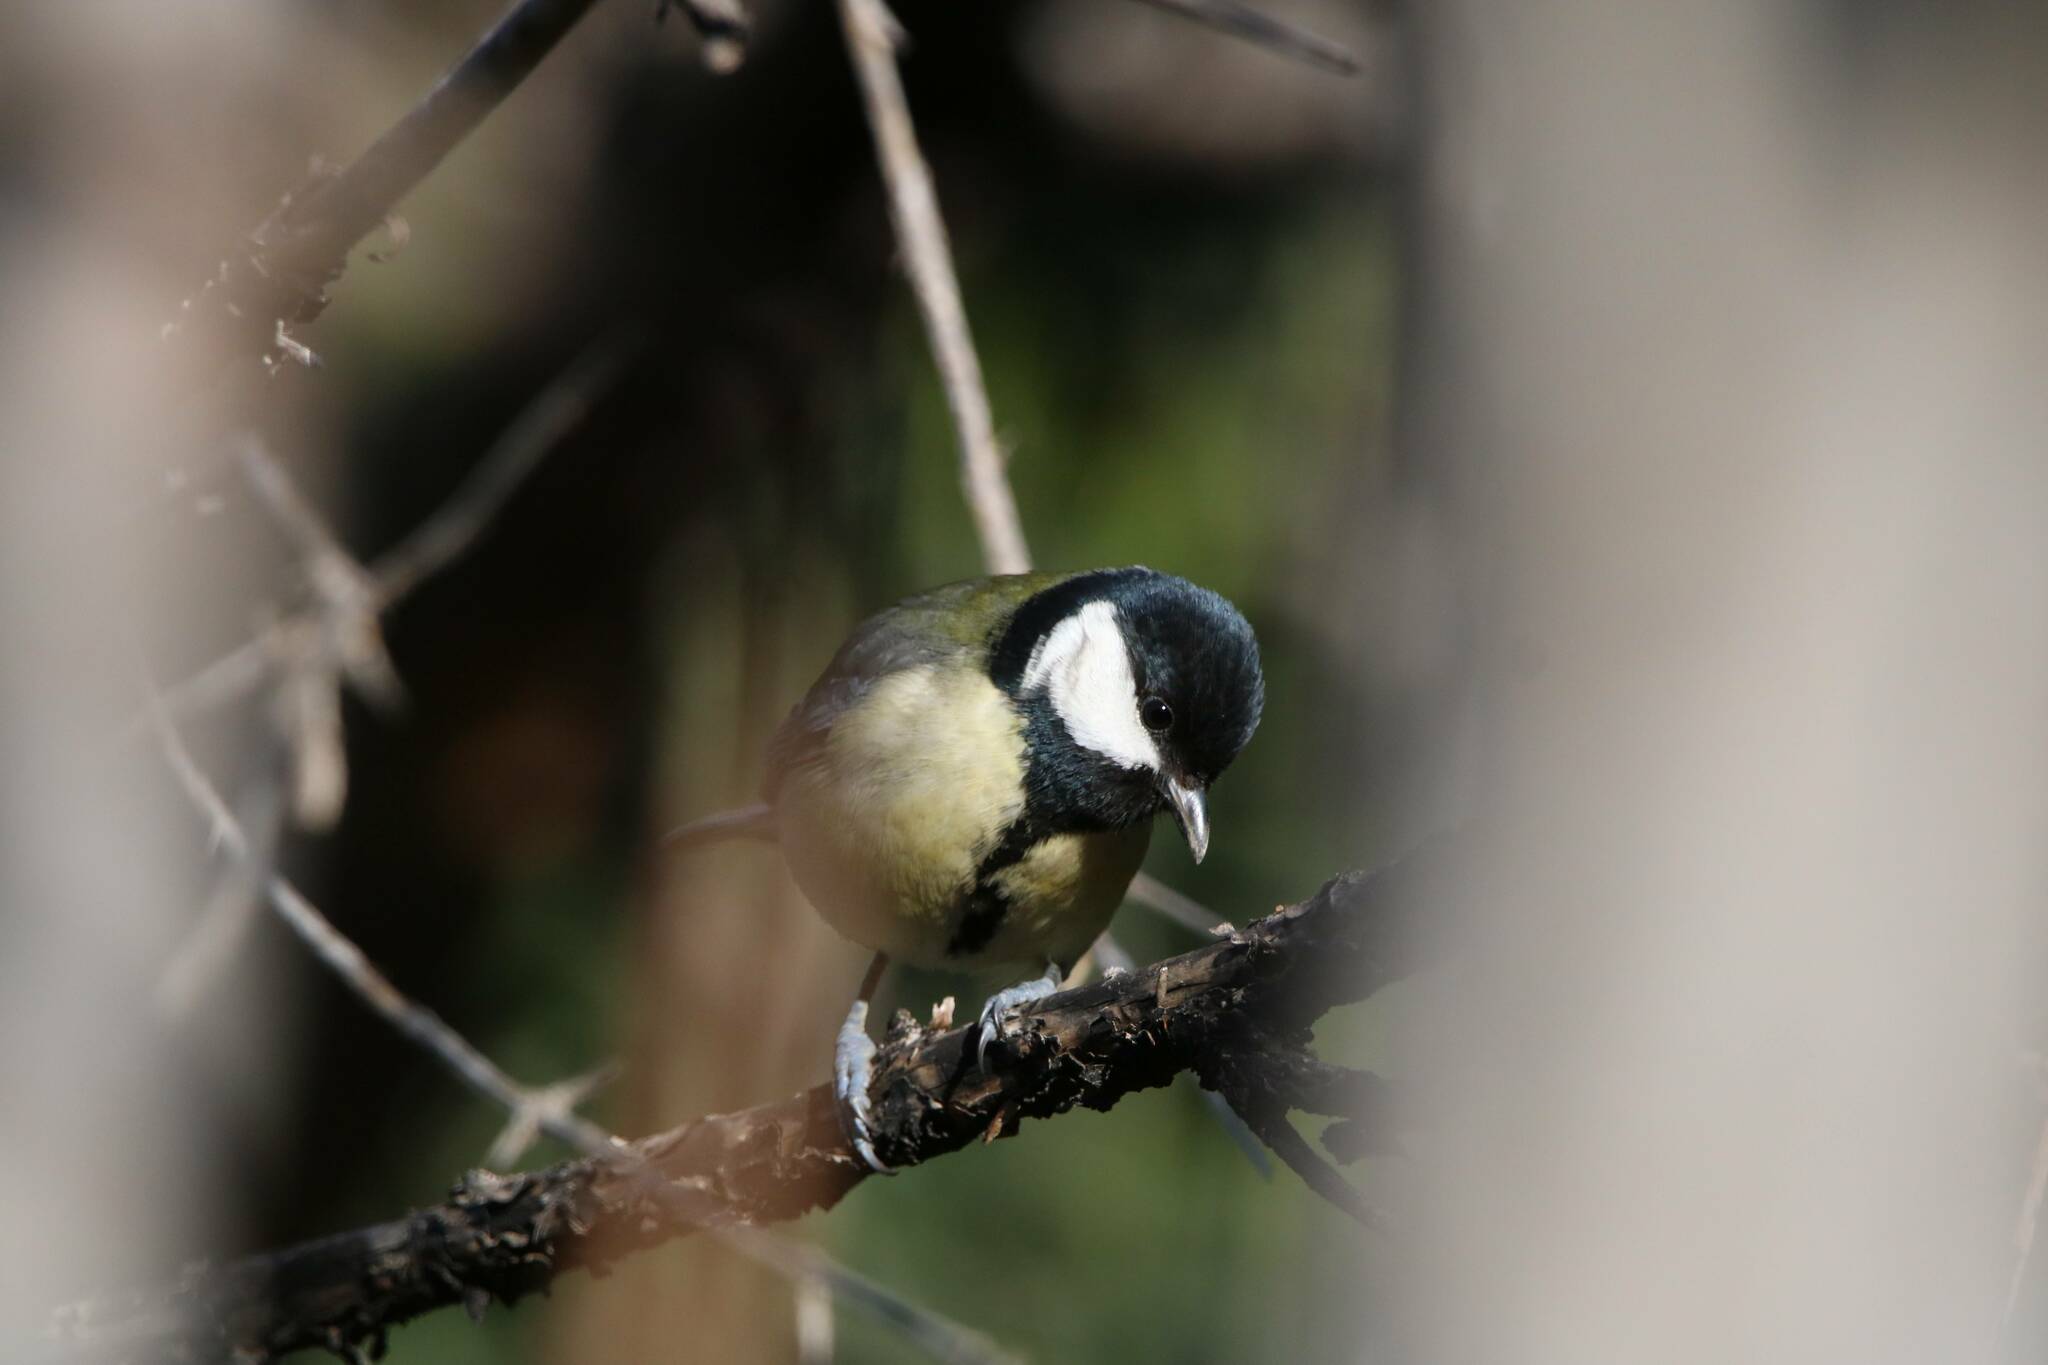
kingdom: Animalia
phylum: Chordata
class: Aves
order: Passeriformes
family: Paridae
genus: Parus
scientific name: Parus major
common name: Great tit
